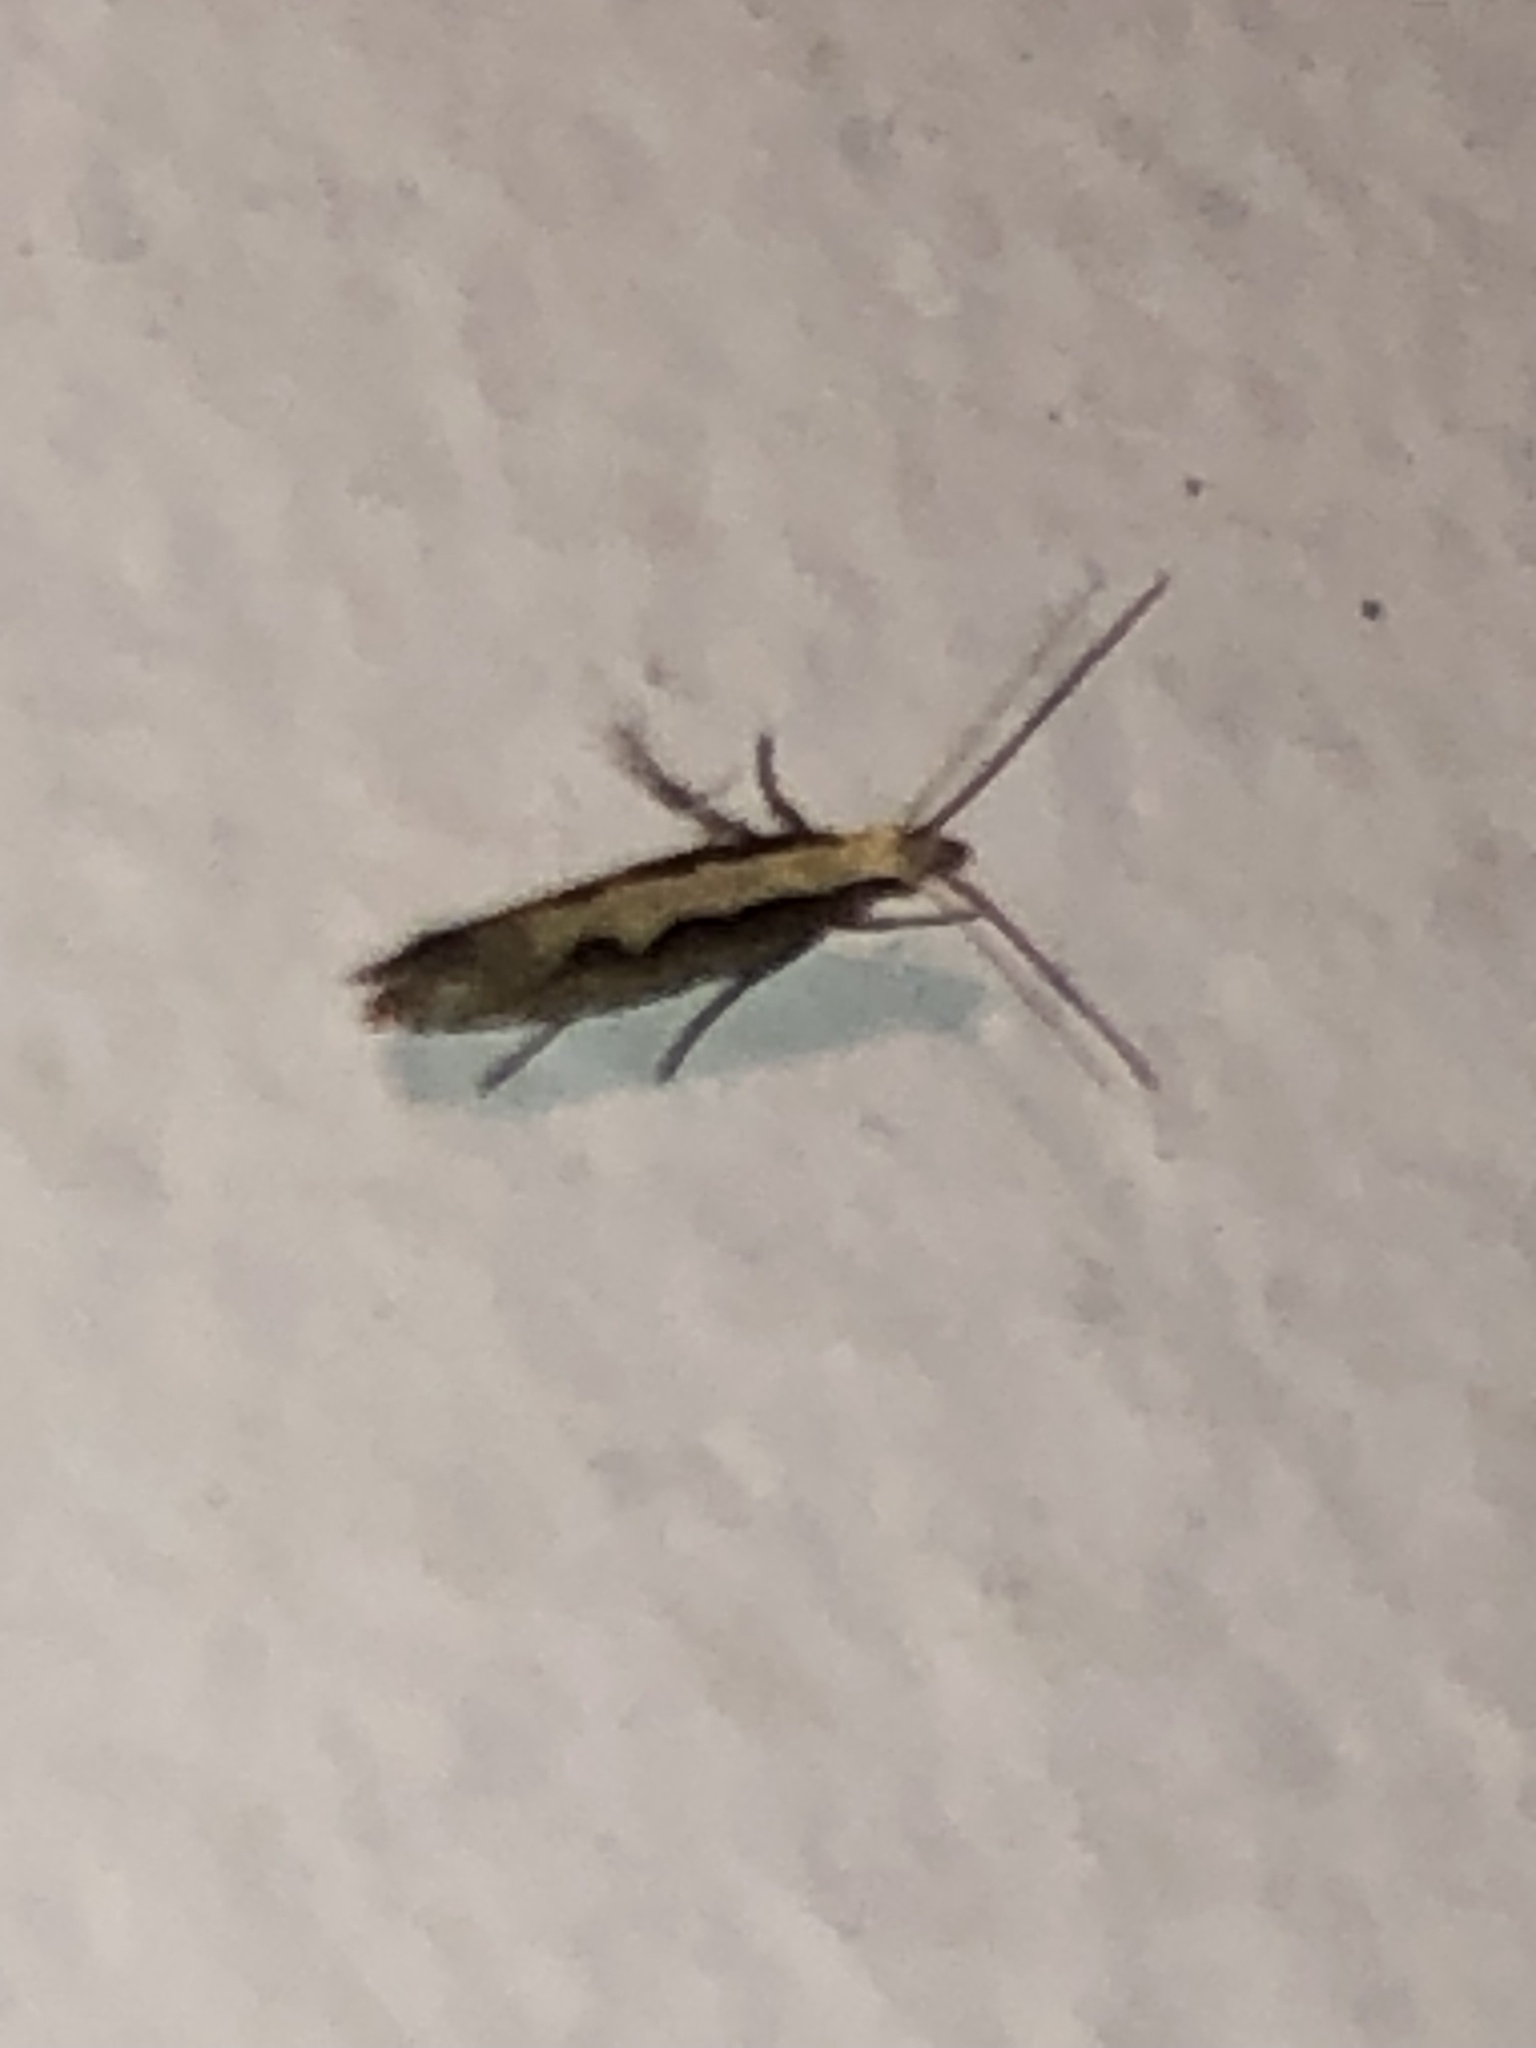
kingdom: Animalia
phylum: Arthropoda
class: Insecta
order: Lepidoptera
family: Plutellidae
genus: Plutella
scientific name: Plutella xylostella
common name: Diamond-back moth
